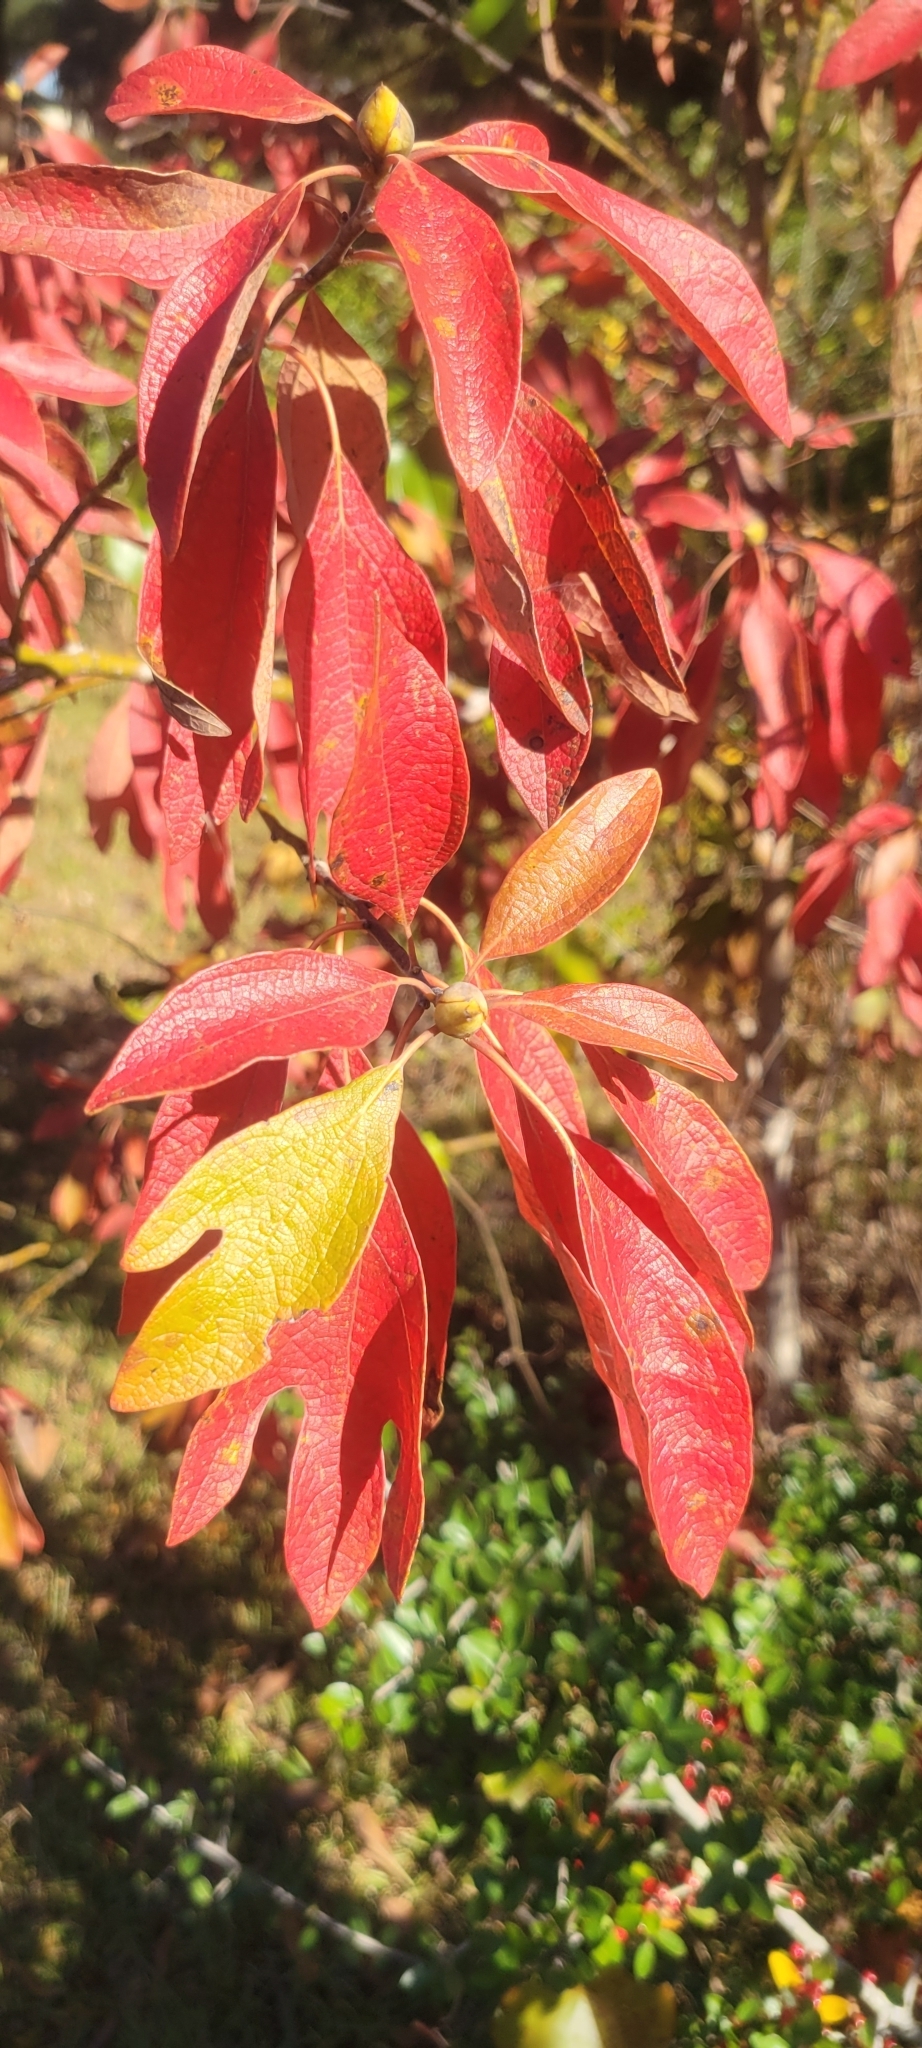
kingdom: Plantae
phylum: Tracheophyta
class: Magnoliopsida
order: Laurales
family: Lauraceae
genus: Sassafras
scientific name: Sassafras albidum
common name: Sassafras
